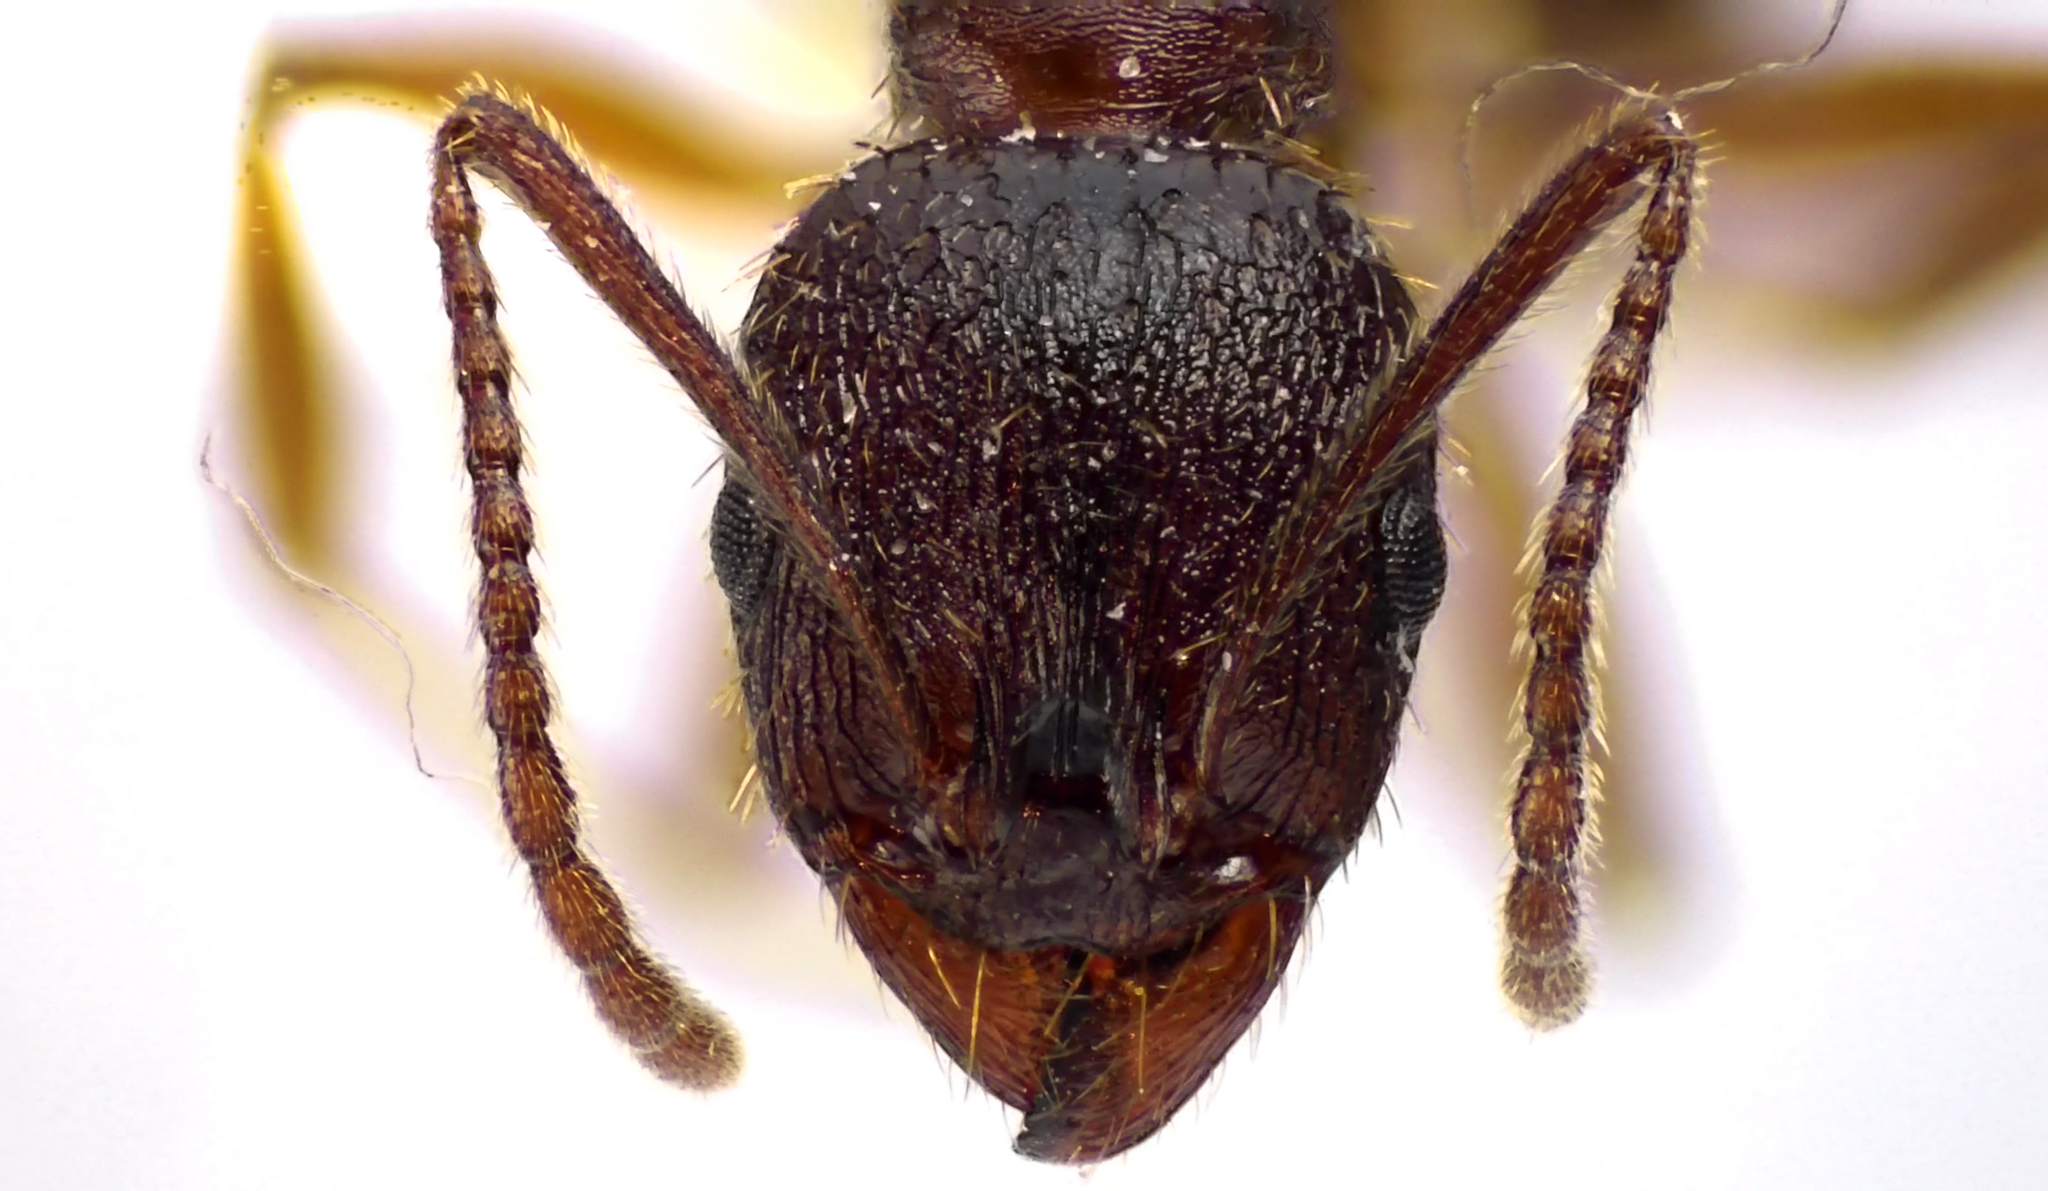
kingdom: Animalia
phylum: Arthropoda
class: Insecta
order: Hymenoptera
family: Formicidae
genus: Aphaenogaster
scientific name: Aphaenogaster fulva
